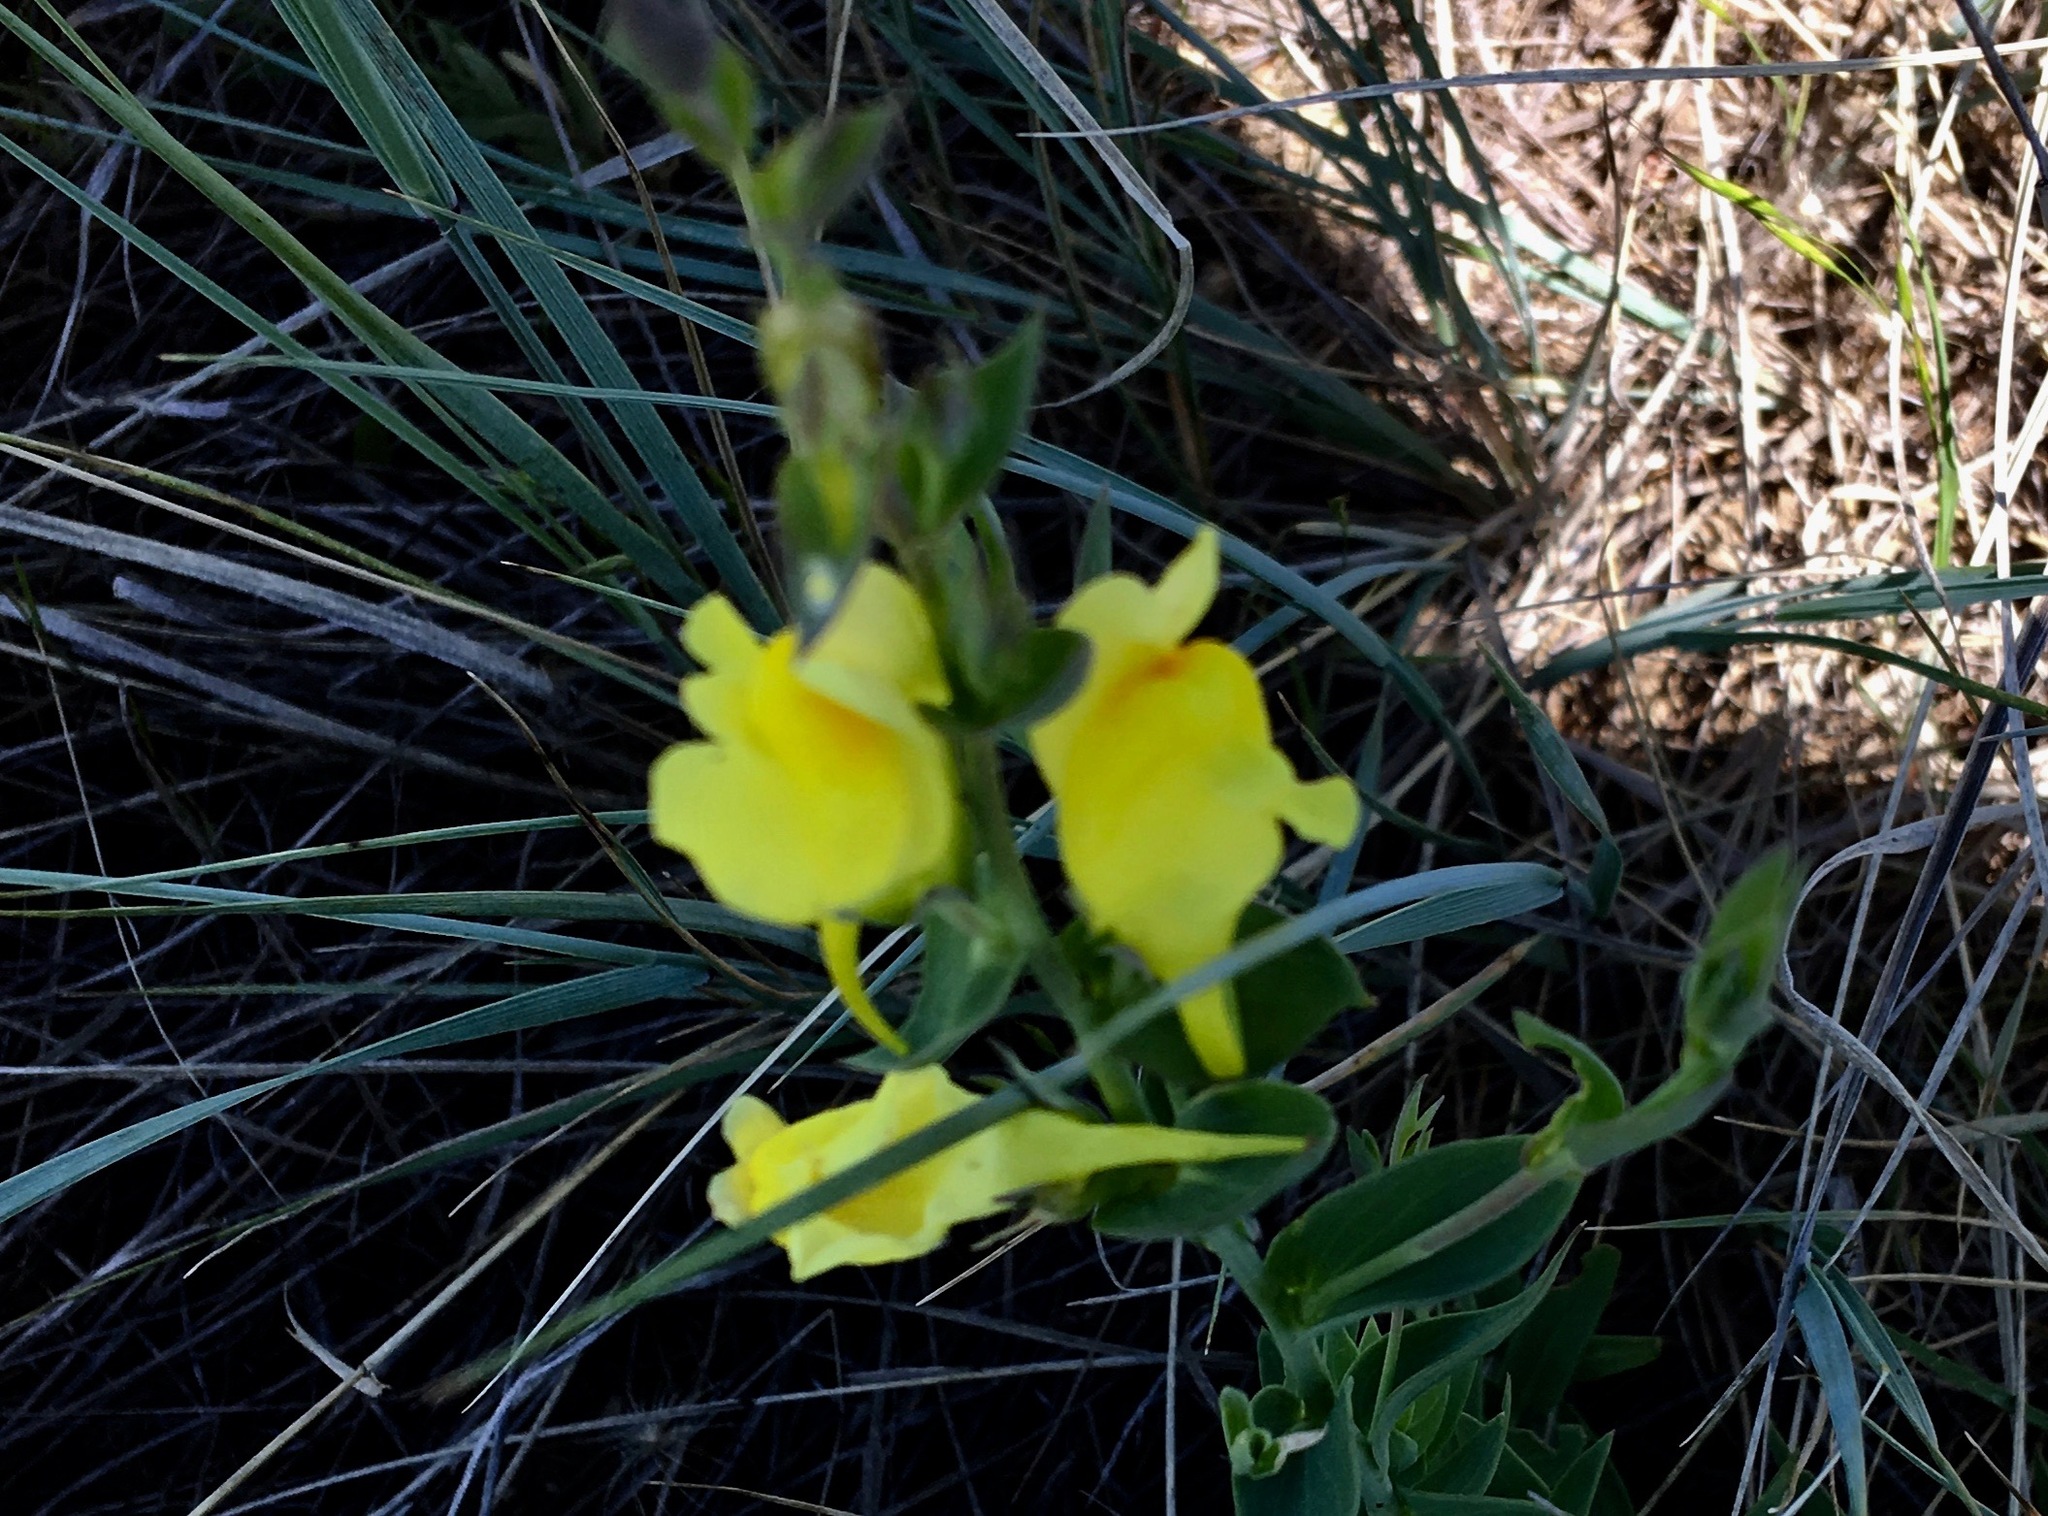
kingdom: Plantae
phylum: Tracheophyta
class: Magnoliopsida
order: Lamiales
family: Plantaginaceae
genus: Linaria
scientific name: Linaria dalmatica
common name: Dalmatian toadflax
